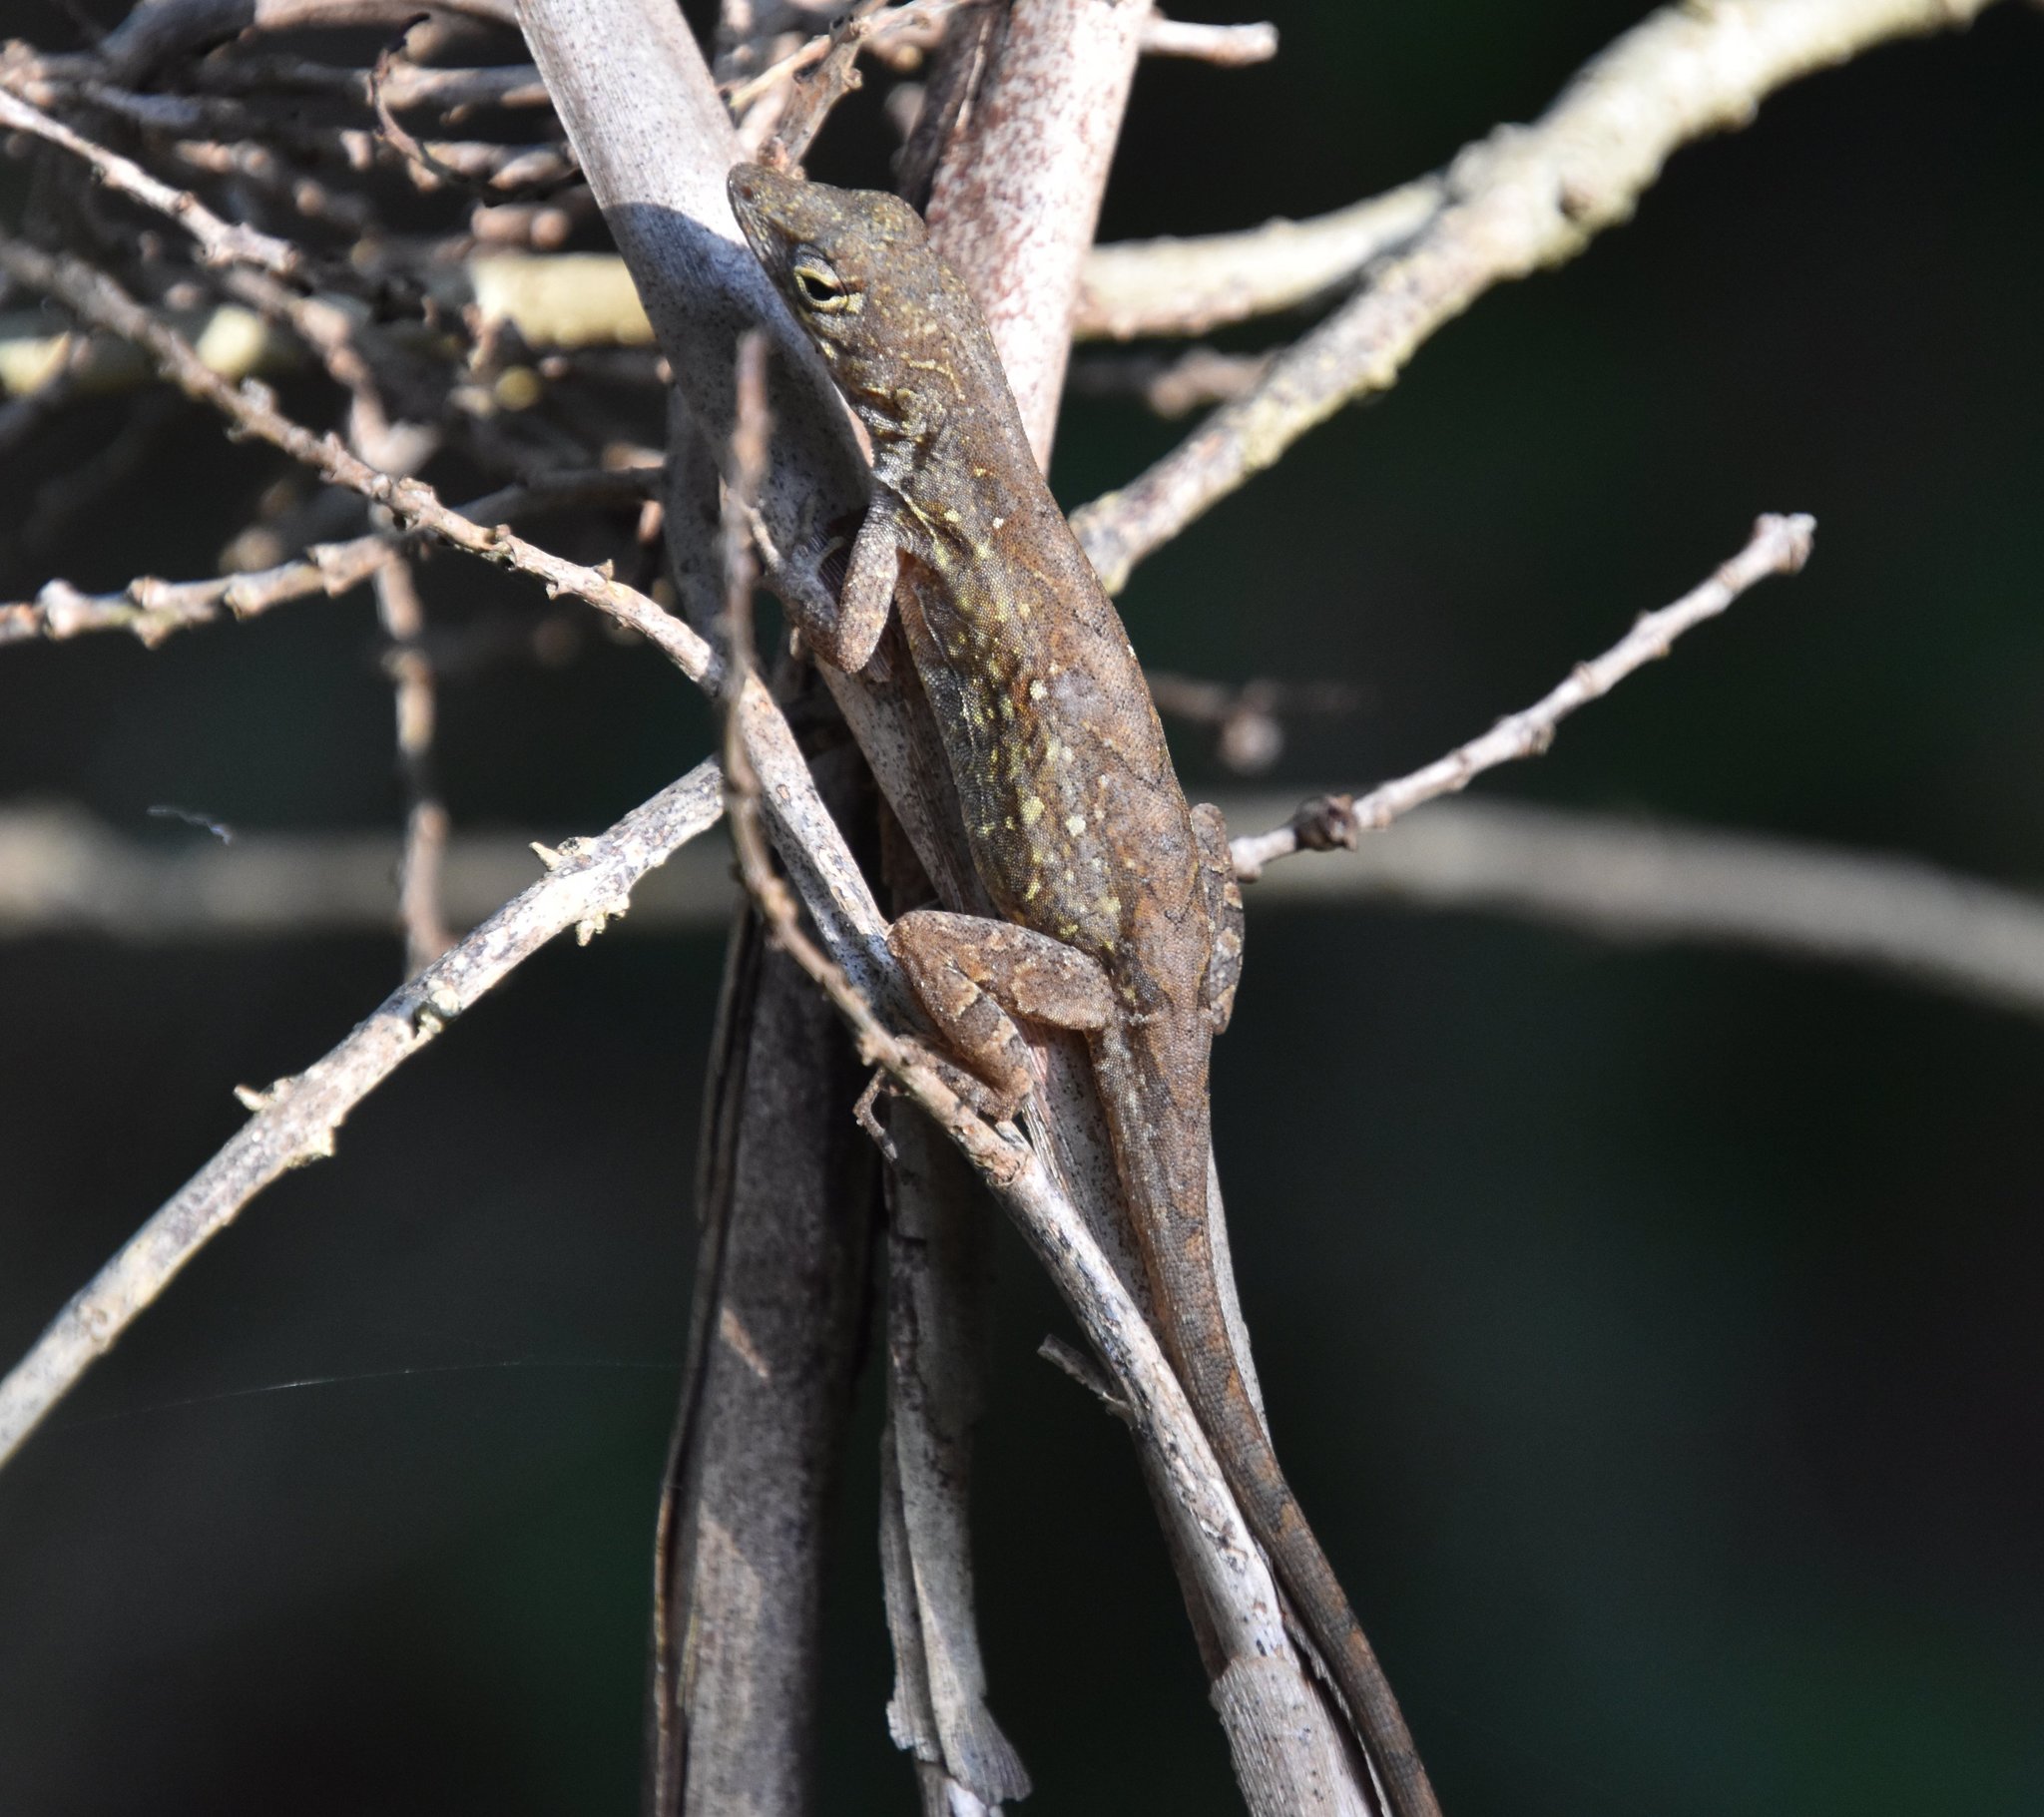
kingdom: Animalia
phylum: Chordata
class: Squamata
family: Dactyloidae
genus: Anolis
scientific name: Anolis sagrei
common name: Brown anole
